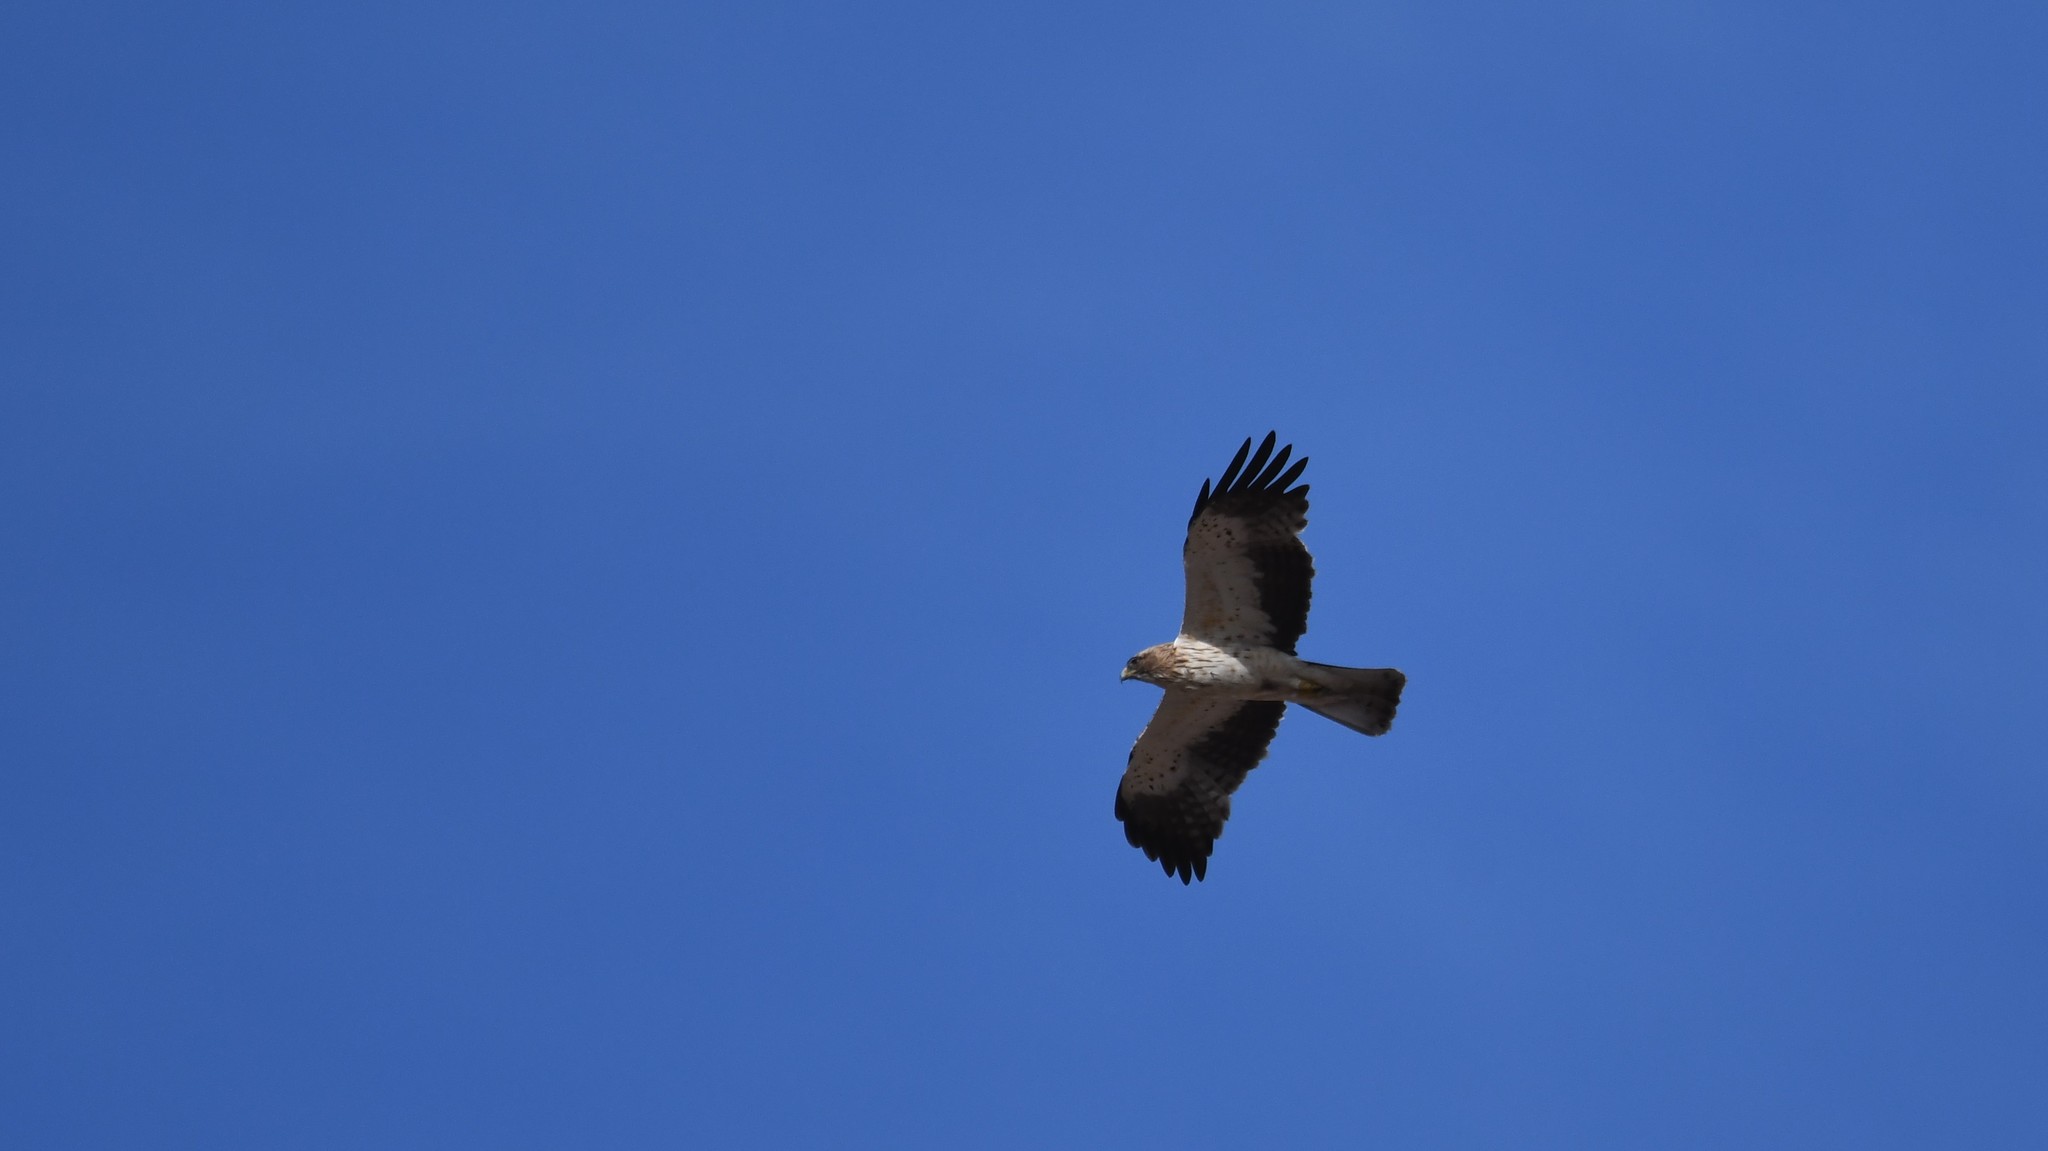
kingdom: Animalia
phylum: Chordata
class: Aves
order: Accipitriformes
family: Accipitridae
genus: Hieraaetus
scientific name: Hieraaetus pennatus
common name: Booted eagle
